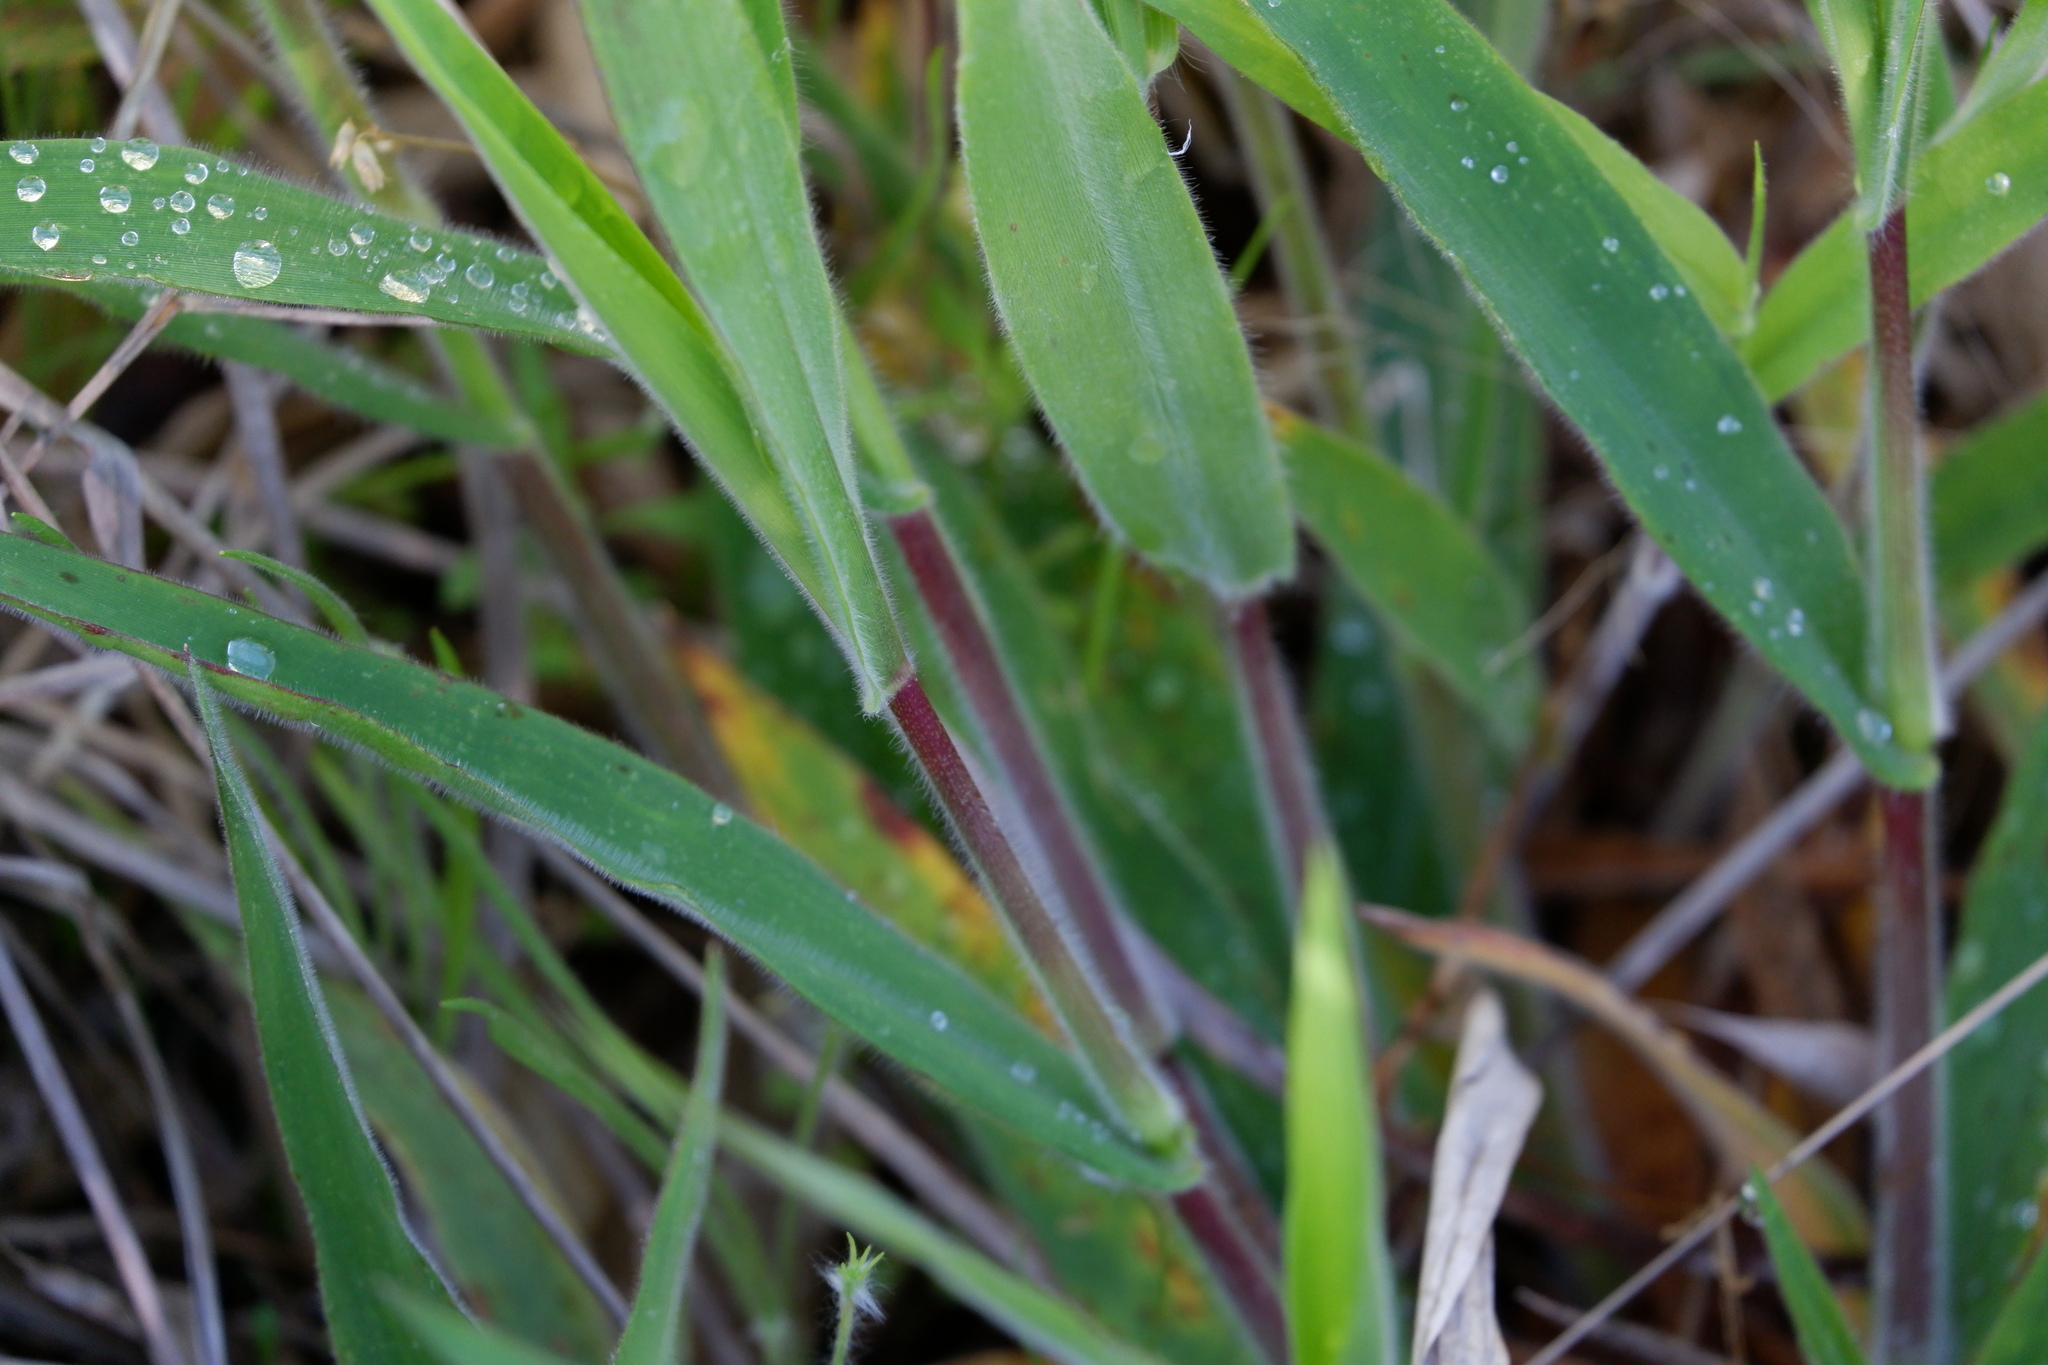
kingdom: Plantae
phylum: Tracheophyta
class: Liliopsida
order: Poales
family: Poaceae
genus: Dichanthelium
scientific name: Dichanthelium scoparium
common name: Velvety panic grass
